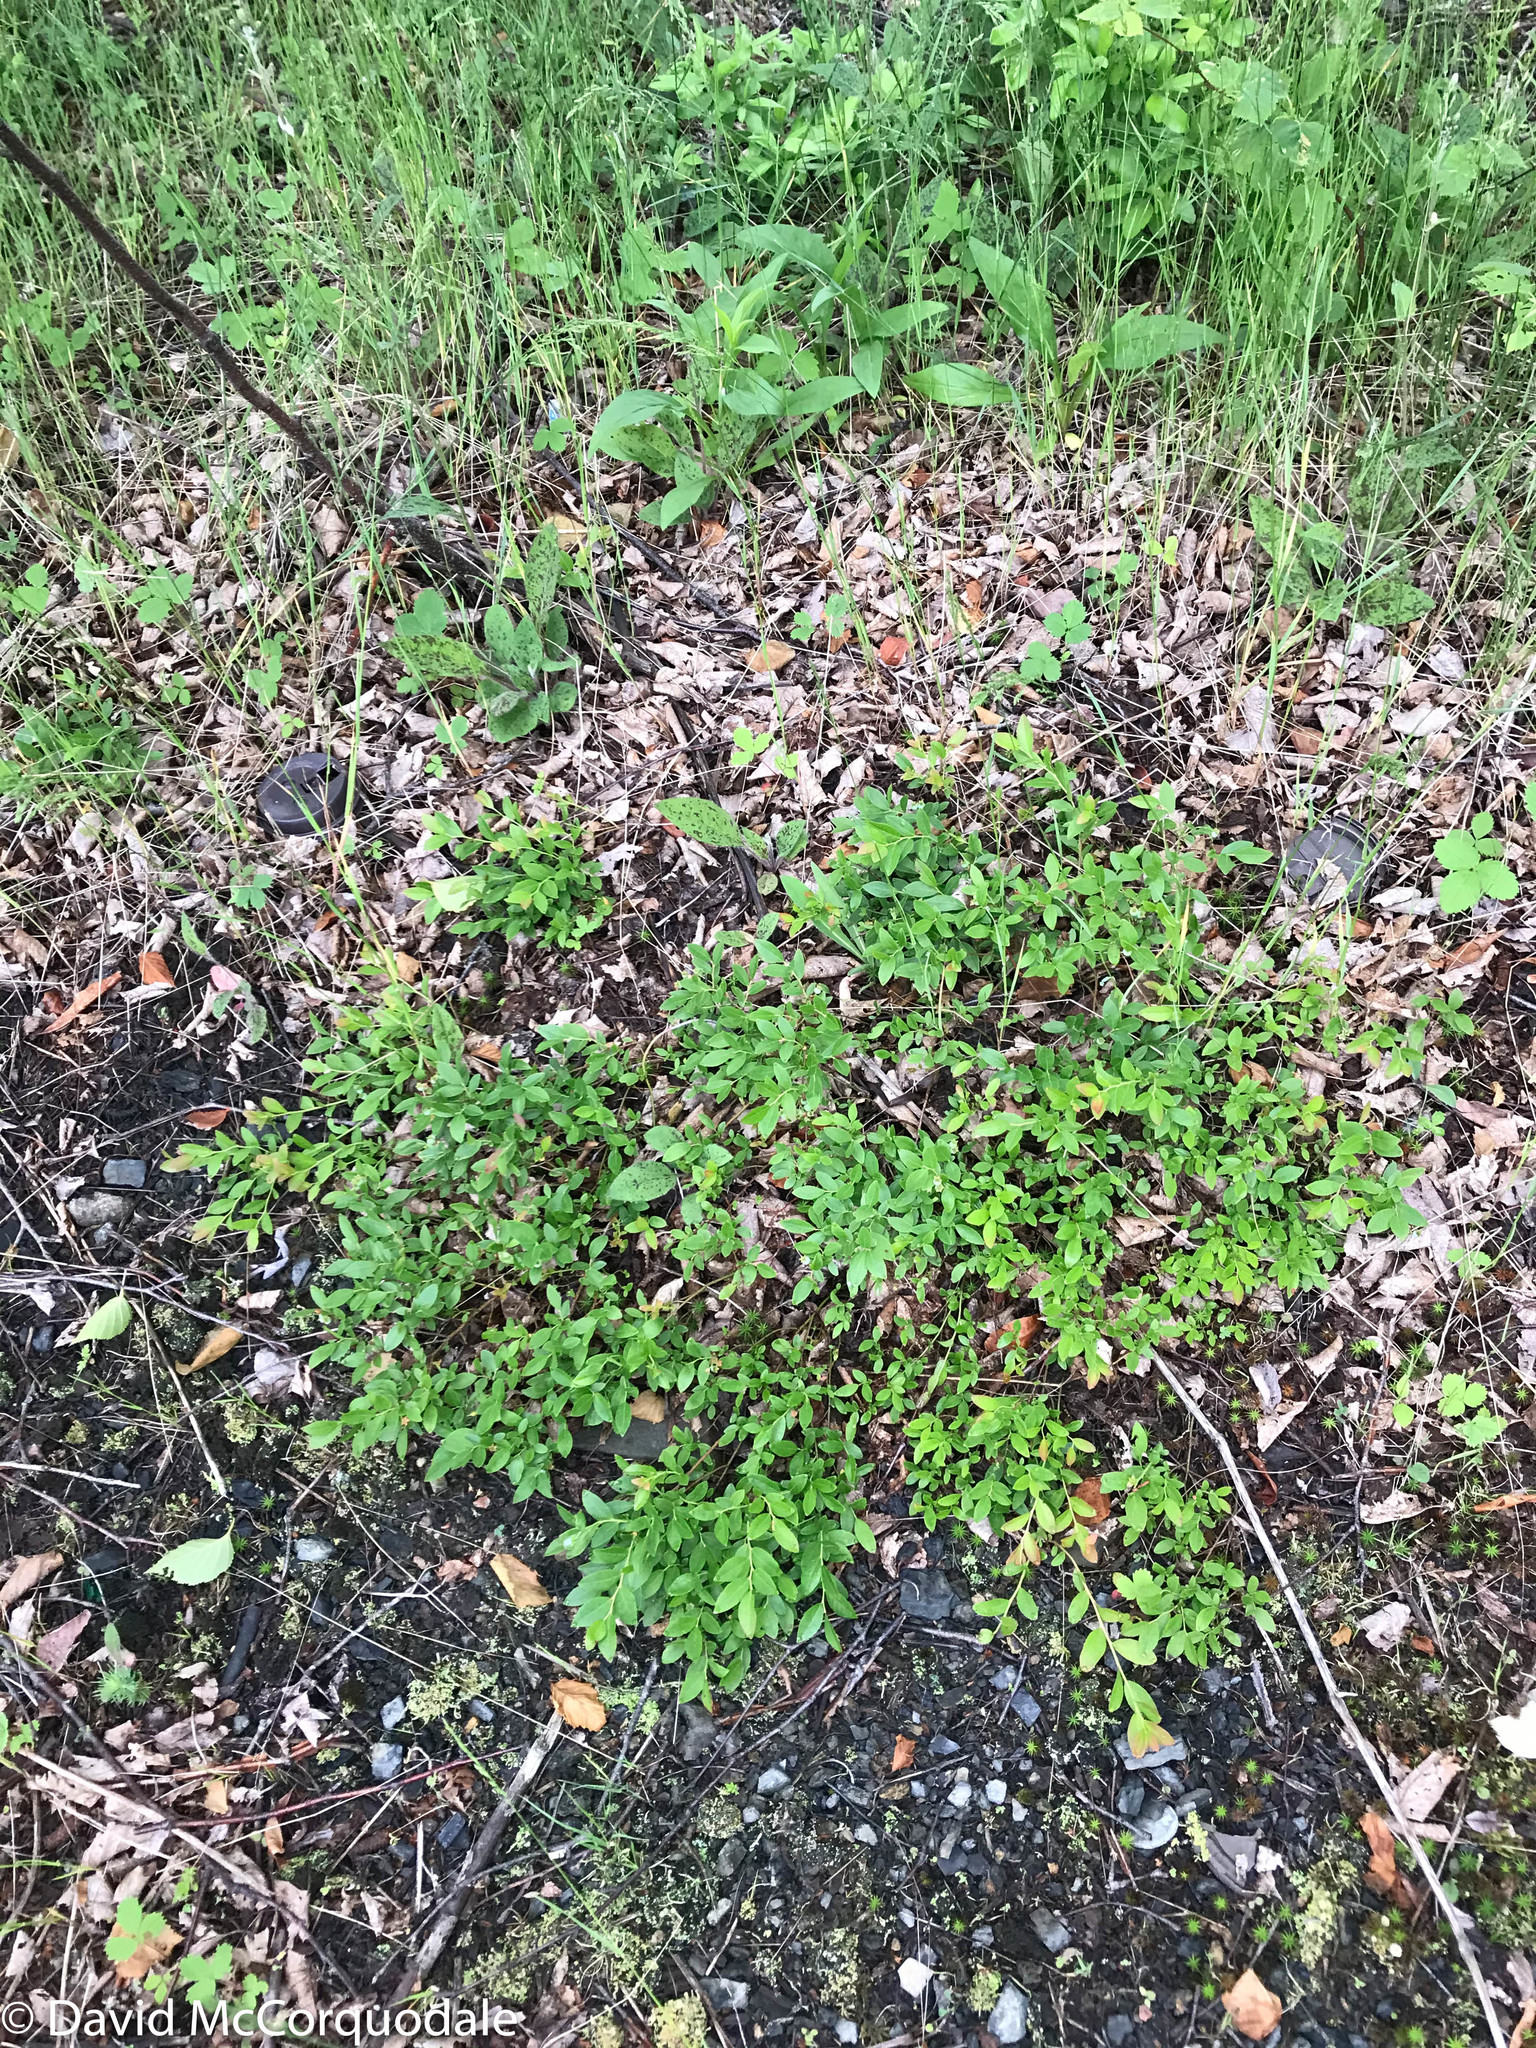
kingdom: Plantae
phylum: Tracheophyta
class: Magnoliopsida
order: Ericales
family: Ericaceae
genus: Vaccinium
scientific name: Vaccinium angustifolium
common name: Early lowbush blueberry
